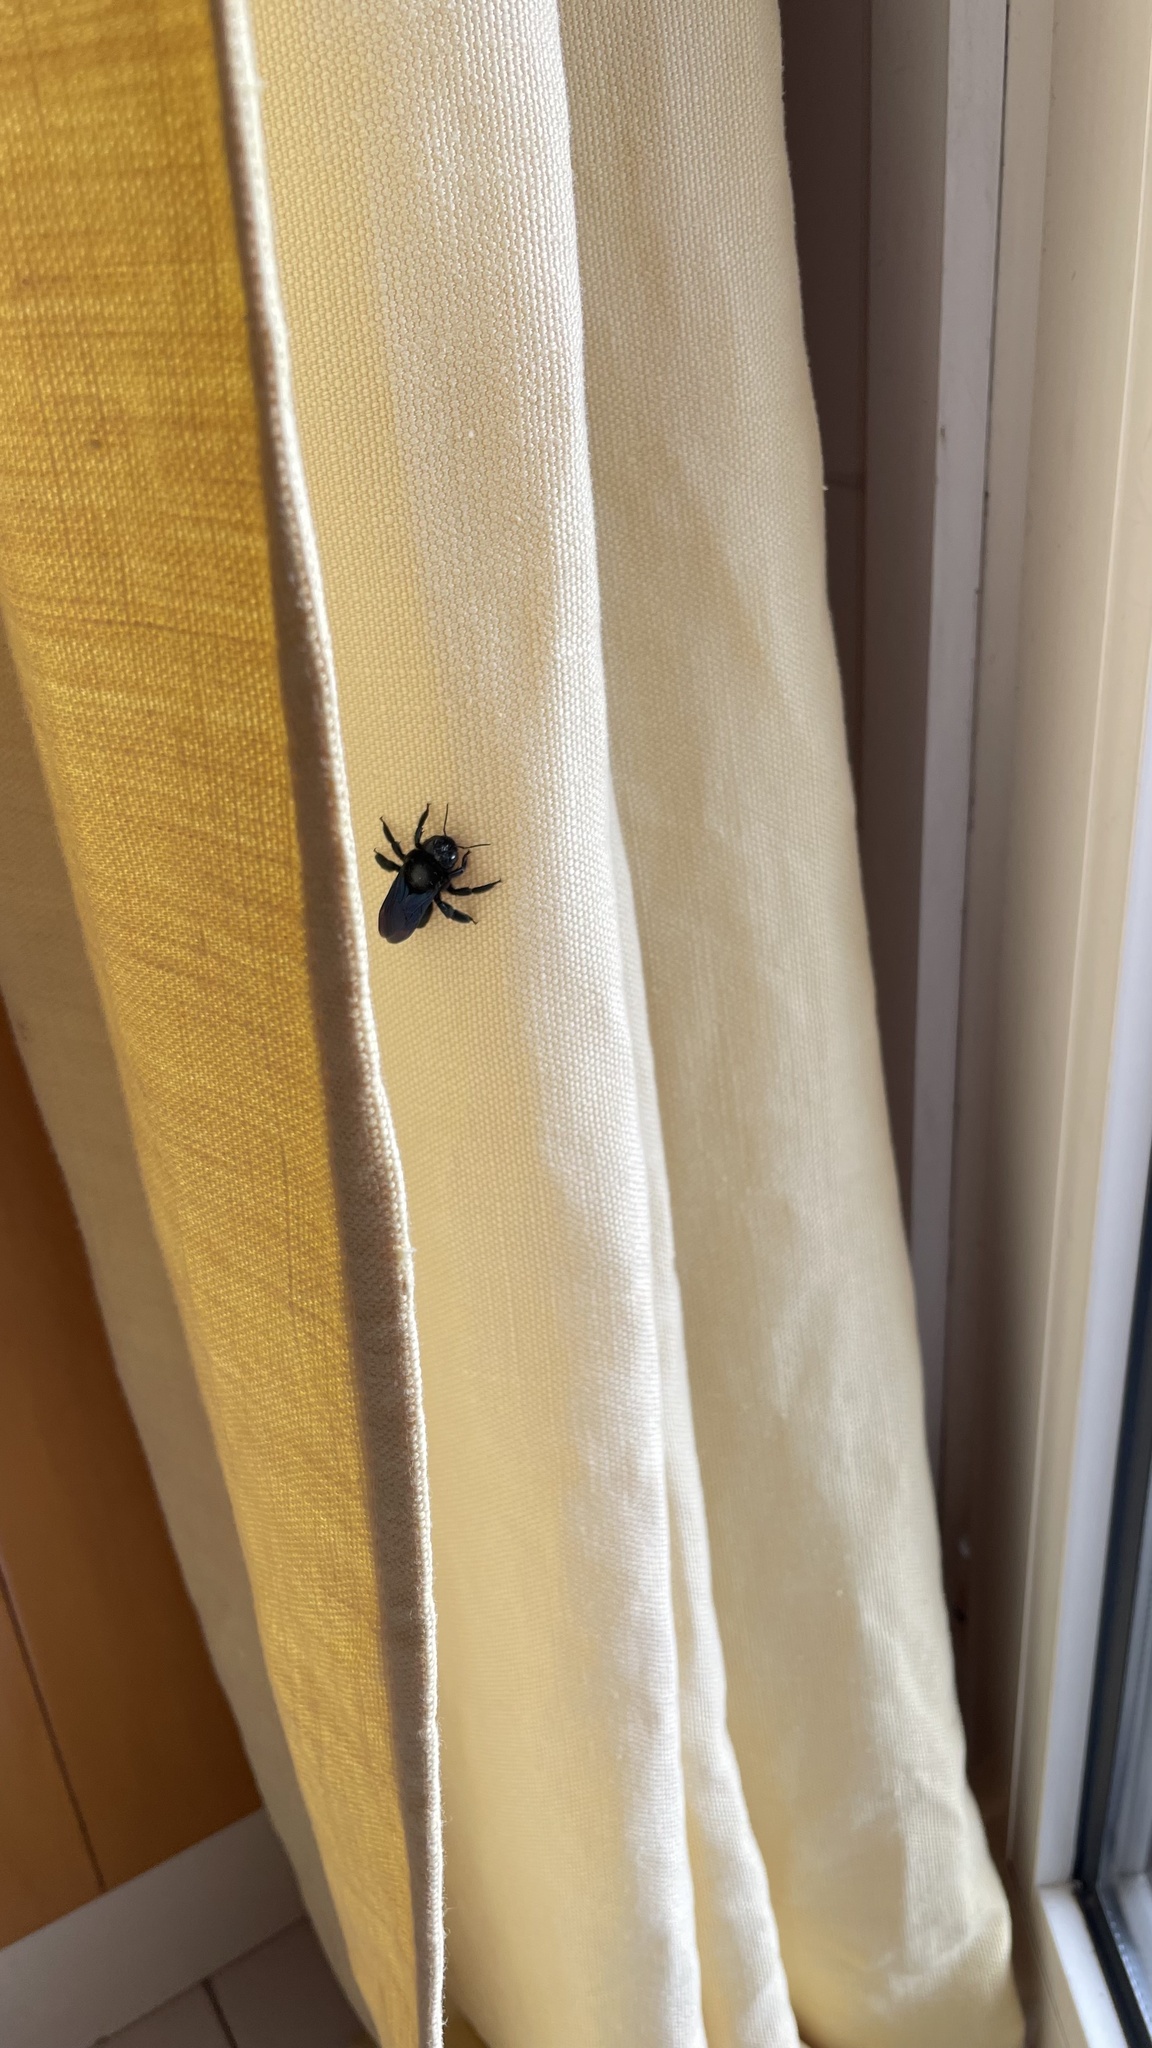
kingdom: Animalia
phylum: Arthropoda
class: Insecta
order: Hymenoptera
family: Apidae
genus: Xylocopa
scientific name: Xylocopa
